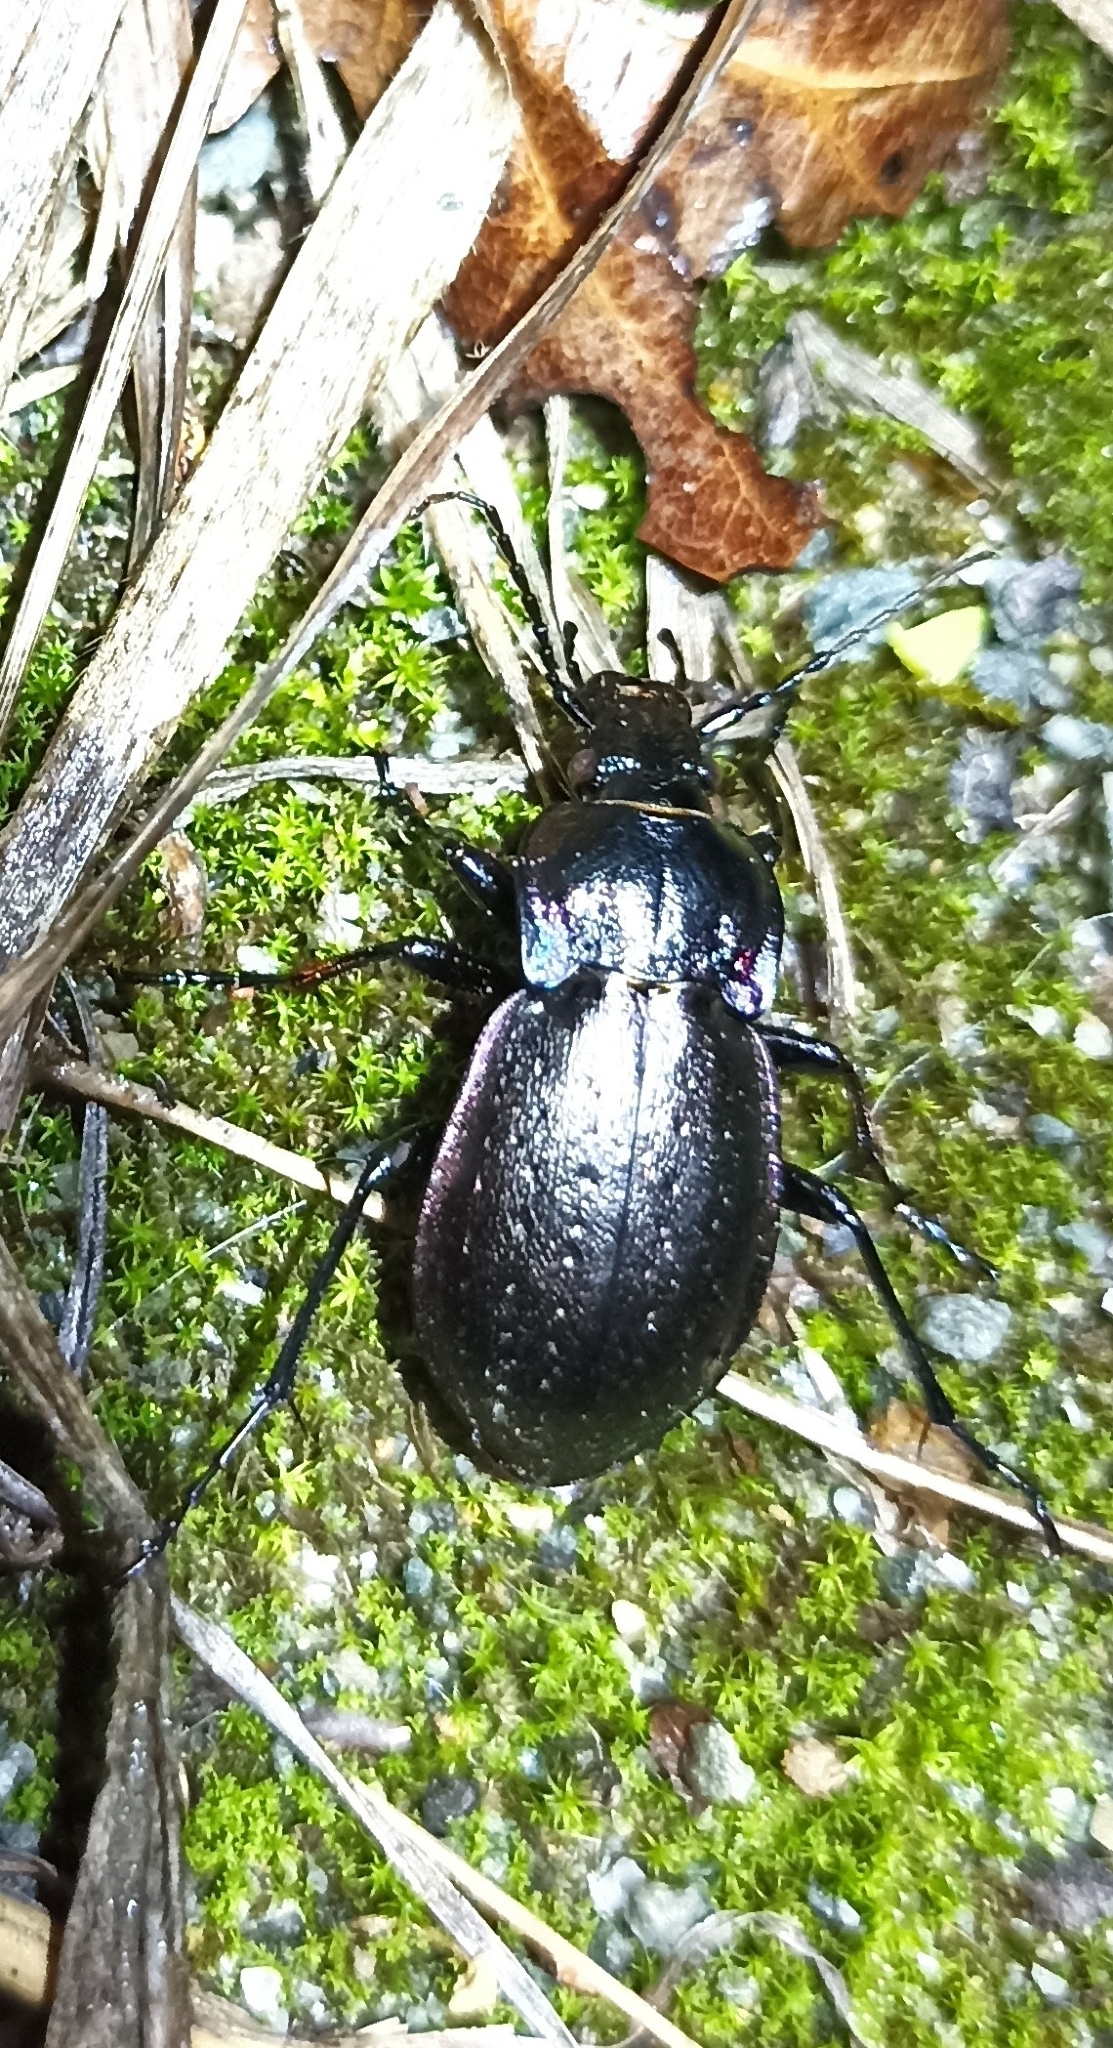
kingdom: Animalia
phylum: Arthropoda
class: Insecta
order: Coleoptera
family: Carabidae
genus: Carabus
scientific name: Carabus nemoralis
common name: European ground beetle
